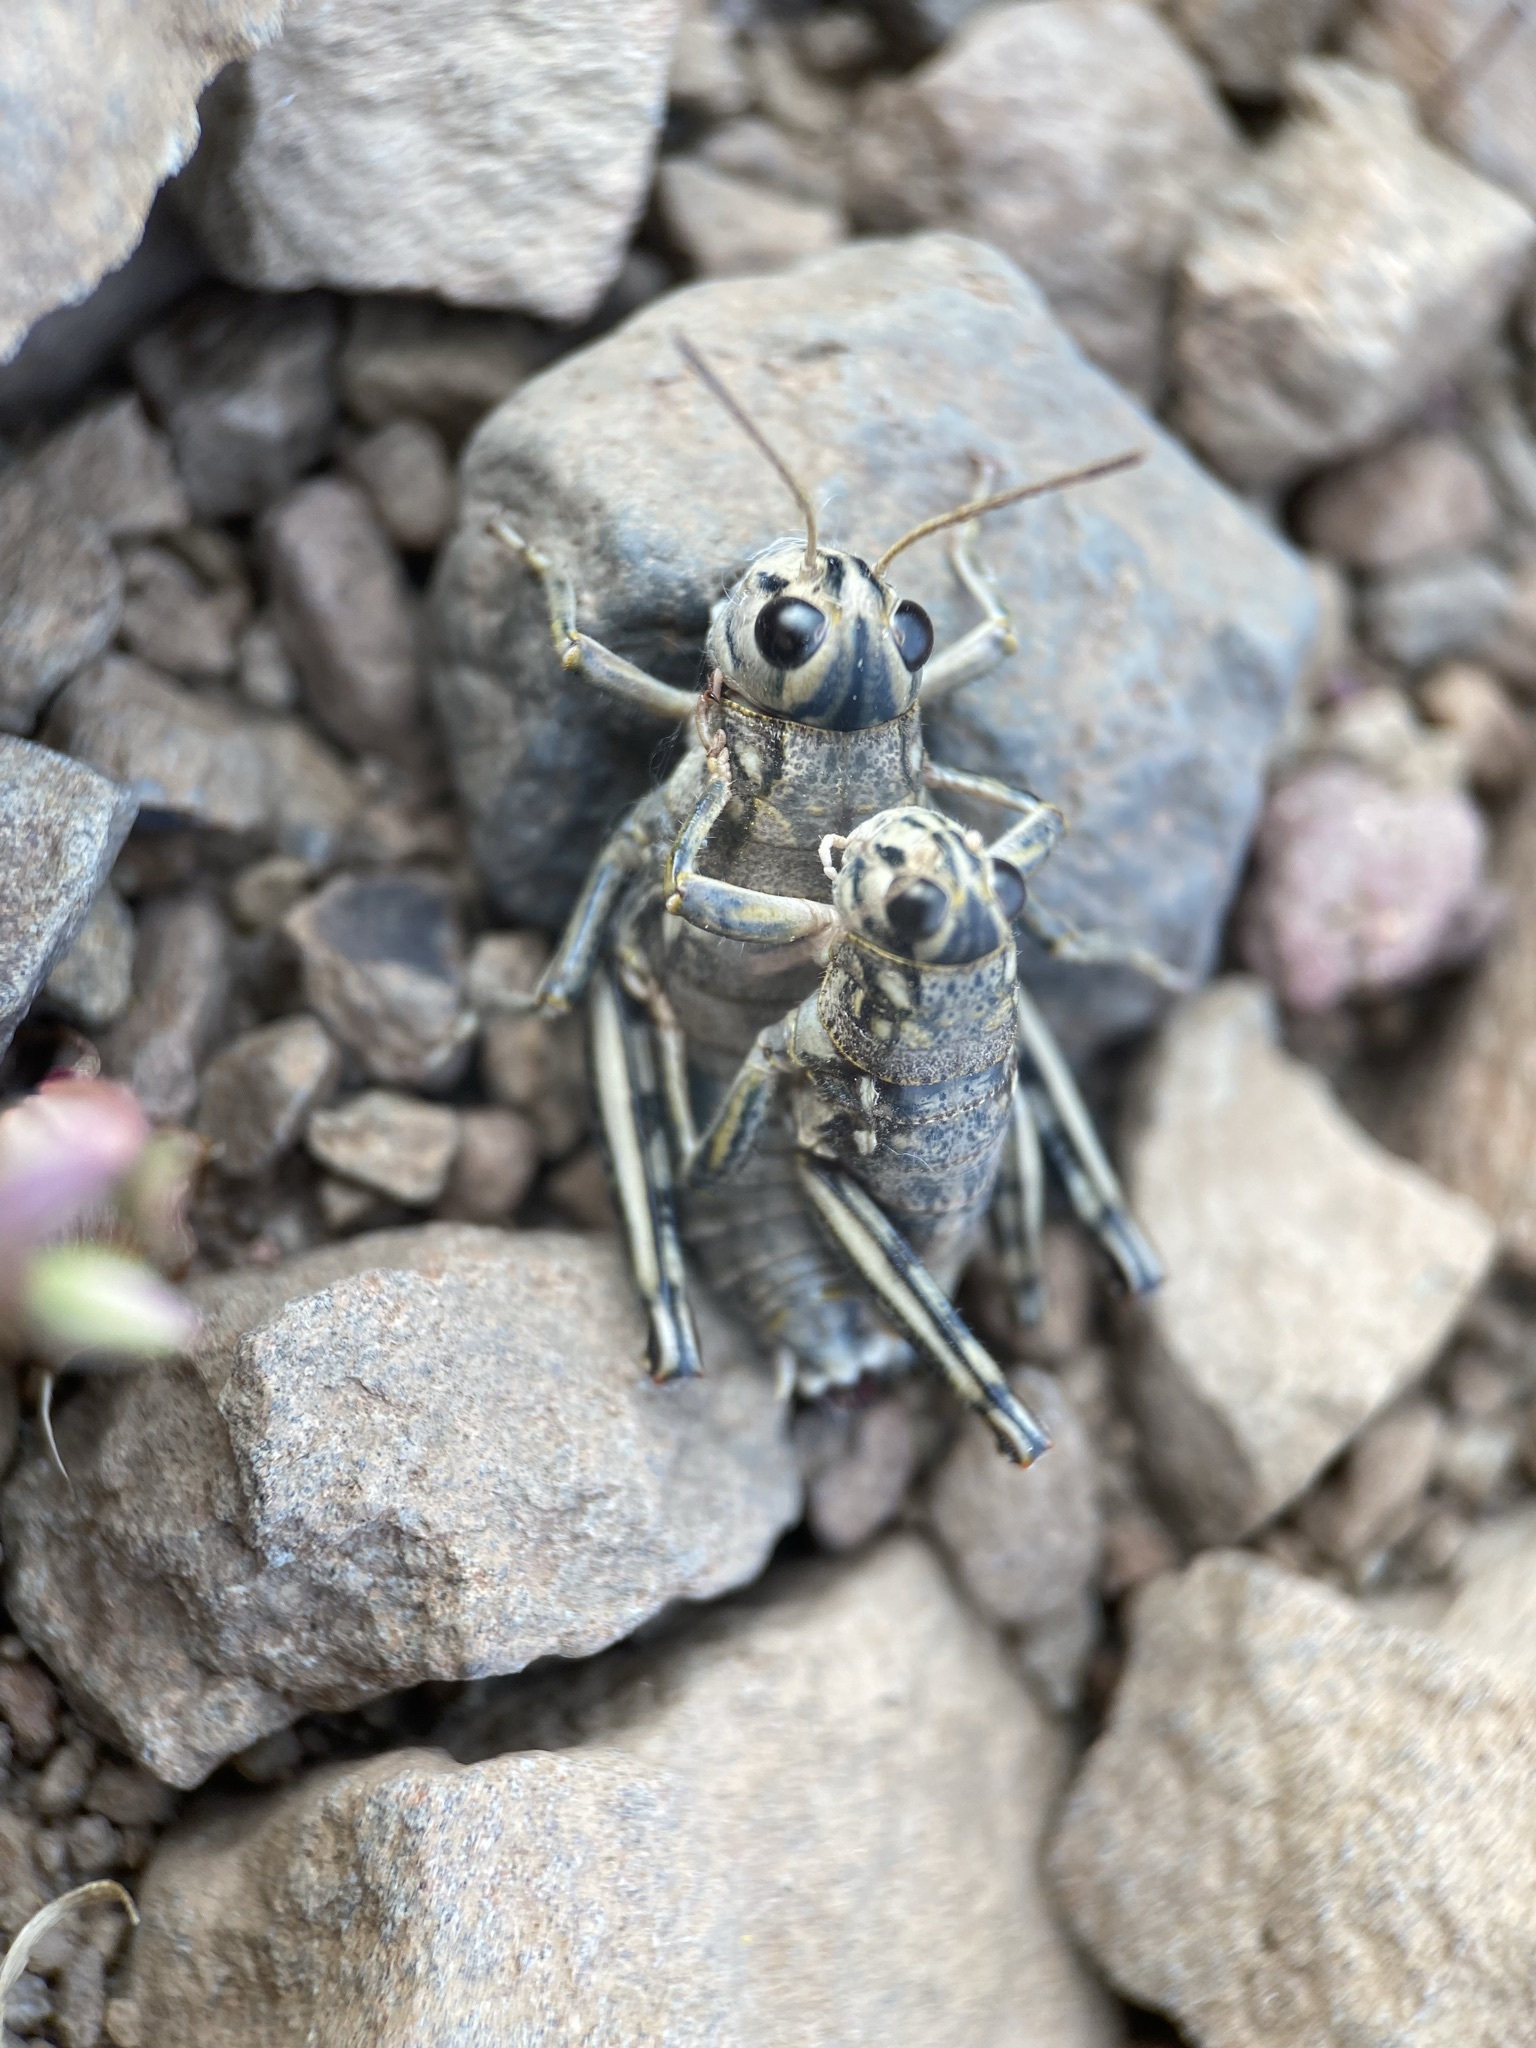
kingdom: Animalia
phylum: Arthropoda
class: Insecta
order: Orthoptera
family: Acrididae
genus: Bradynotes
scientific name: Bradynotes obesa
